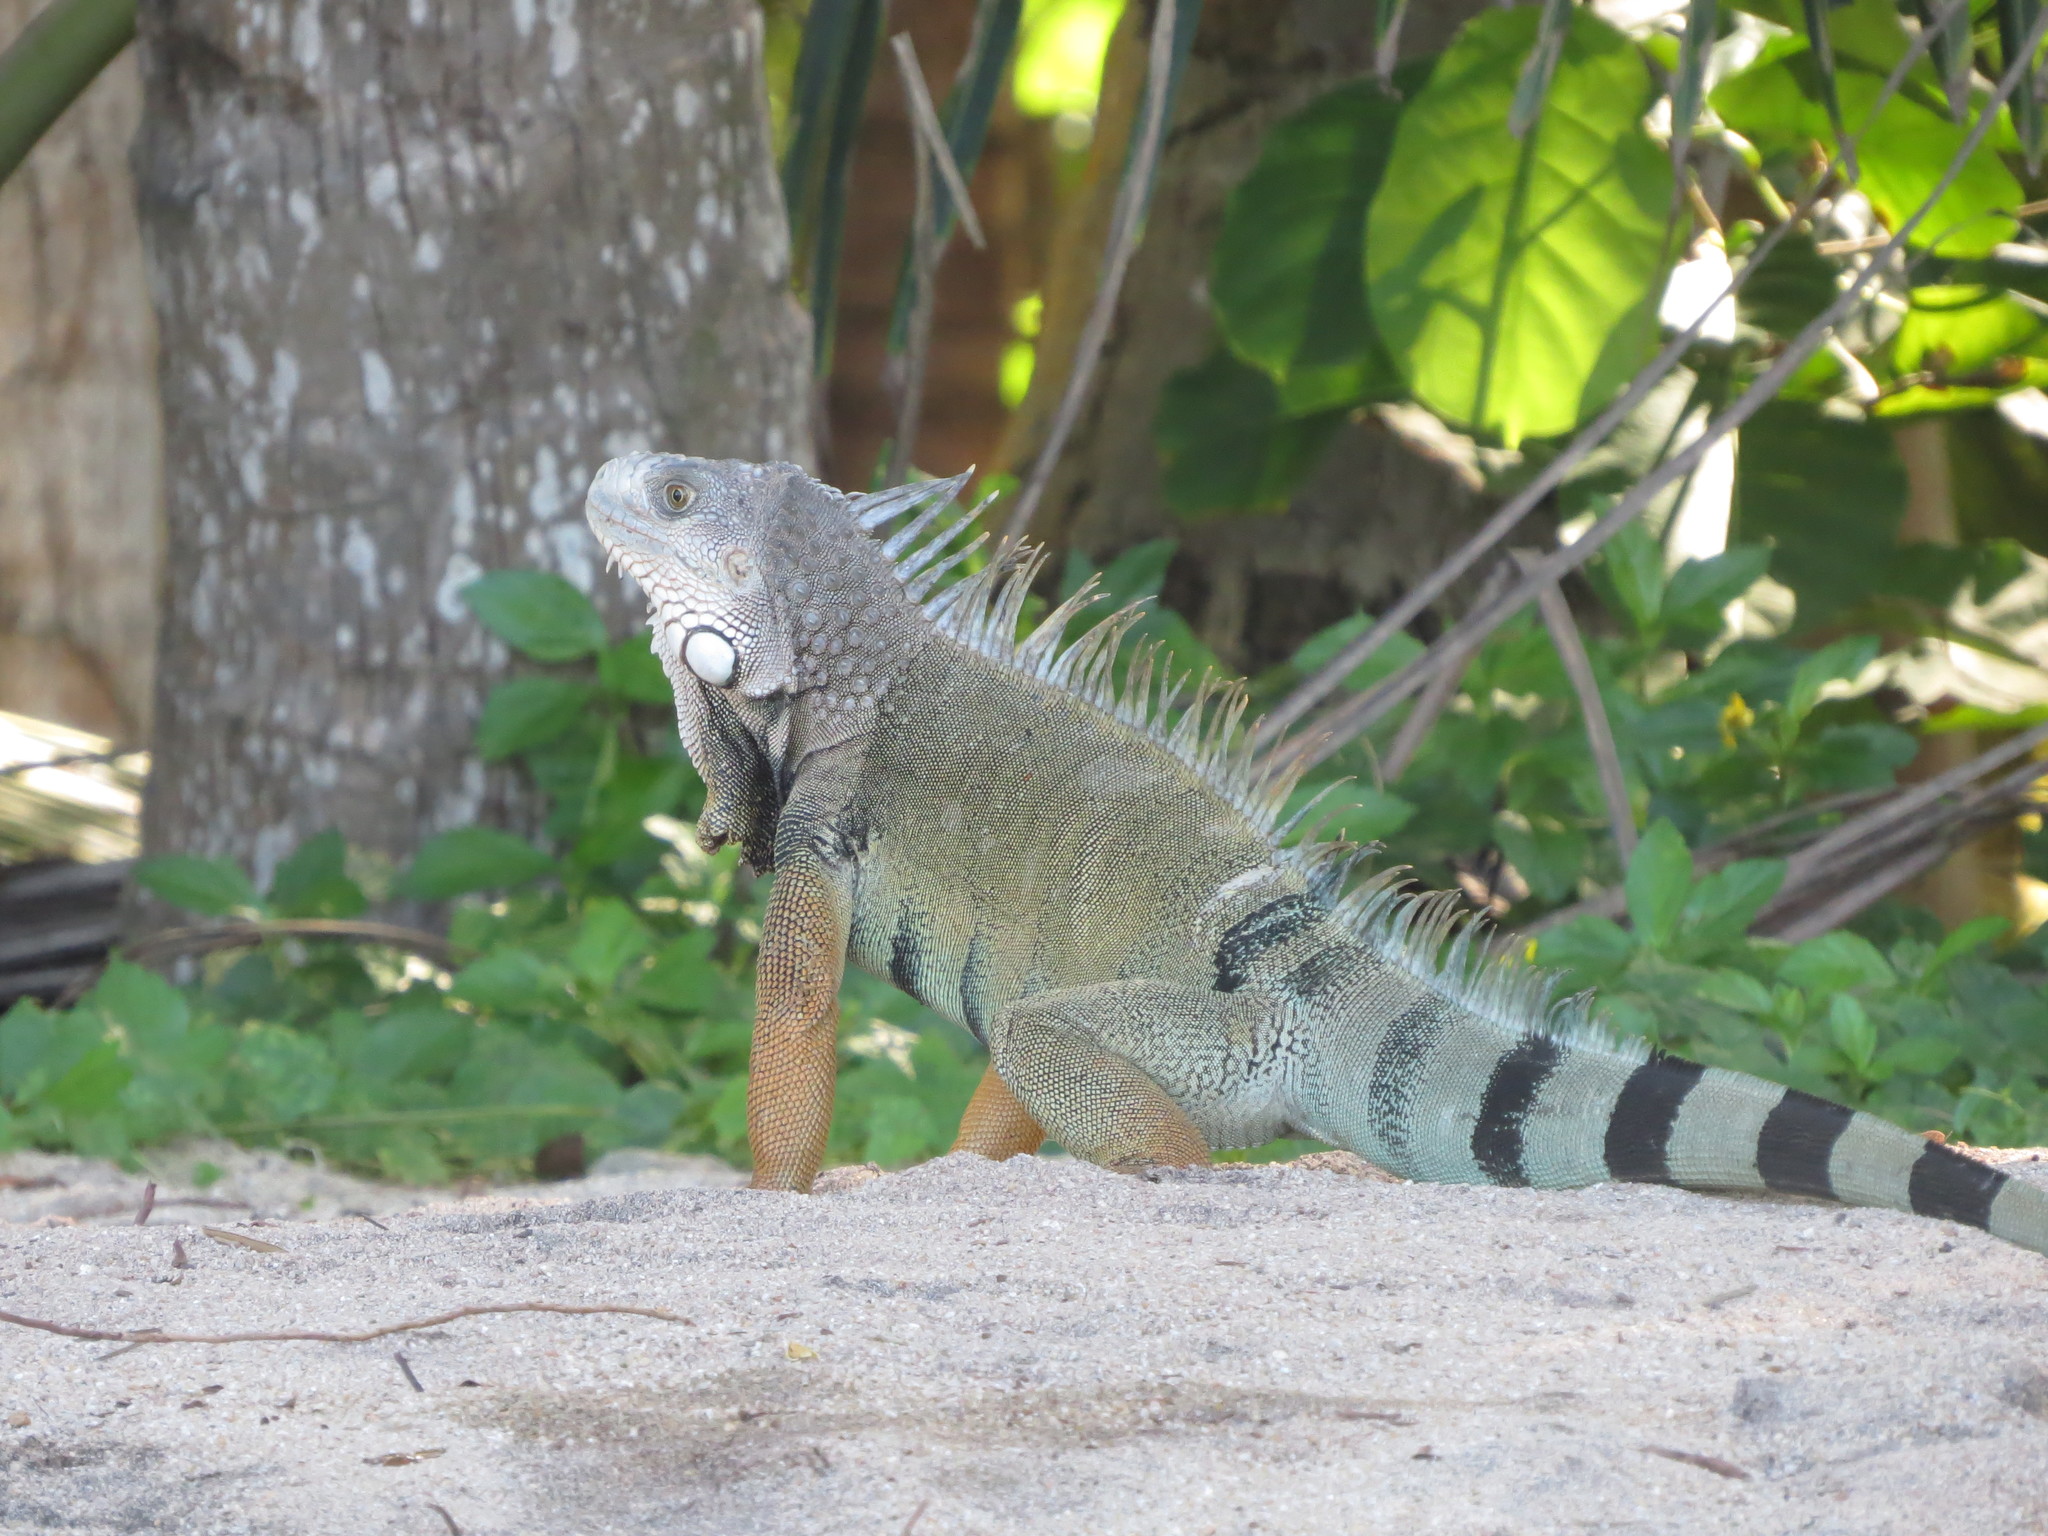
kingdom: Animalia
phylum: Chordata
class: Squamata
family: Iguanidae
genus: Iguana
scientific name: Iguana iguana
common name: Green iguana
